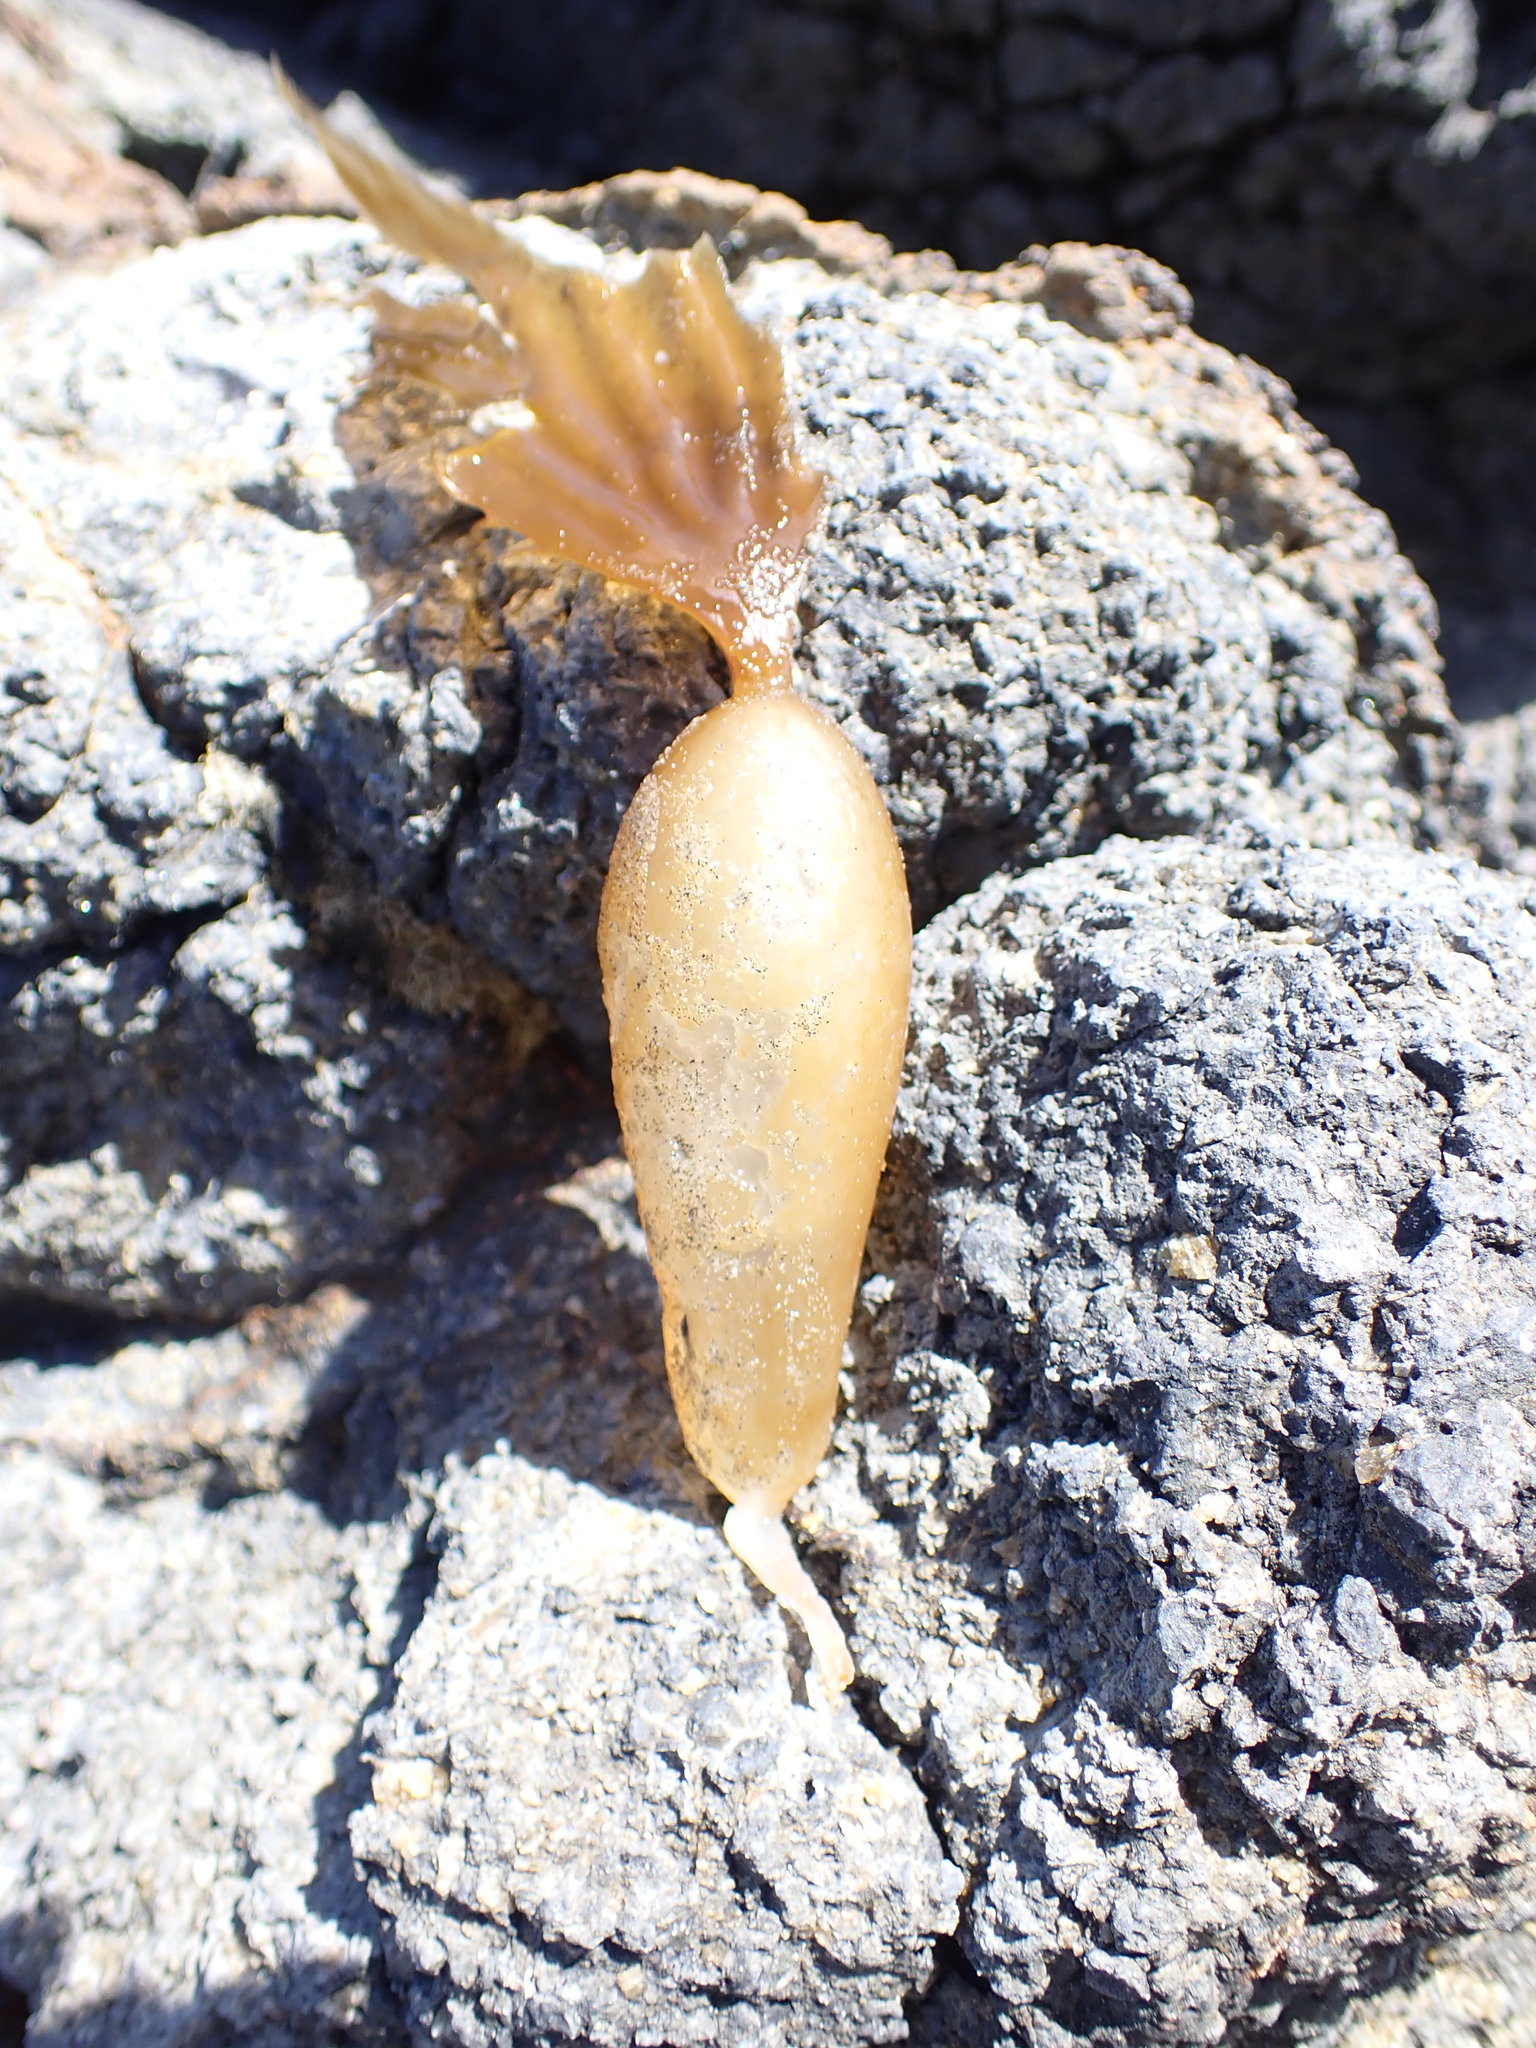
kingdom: Chromista
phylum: Ochrophyta
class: Phaeophyceae
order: Laminariales
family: Laminariaceae
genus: Macrocystis
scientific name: Macrocystis pyrifera
